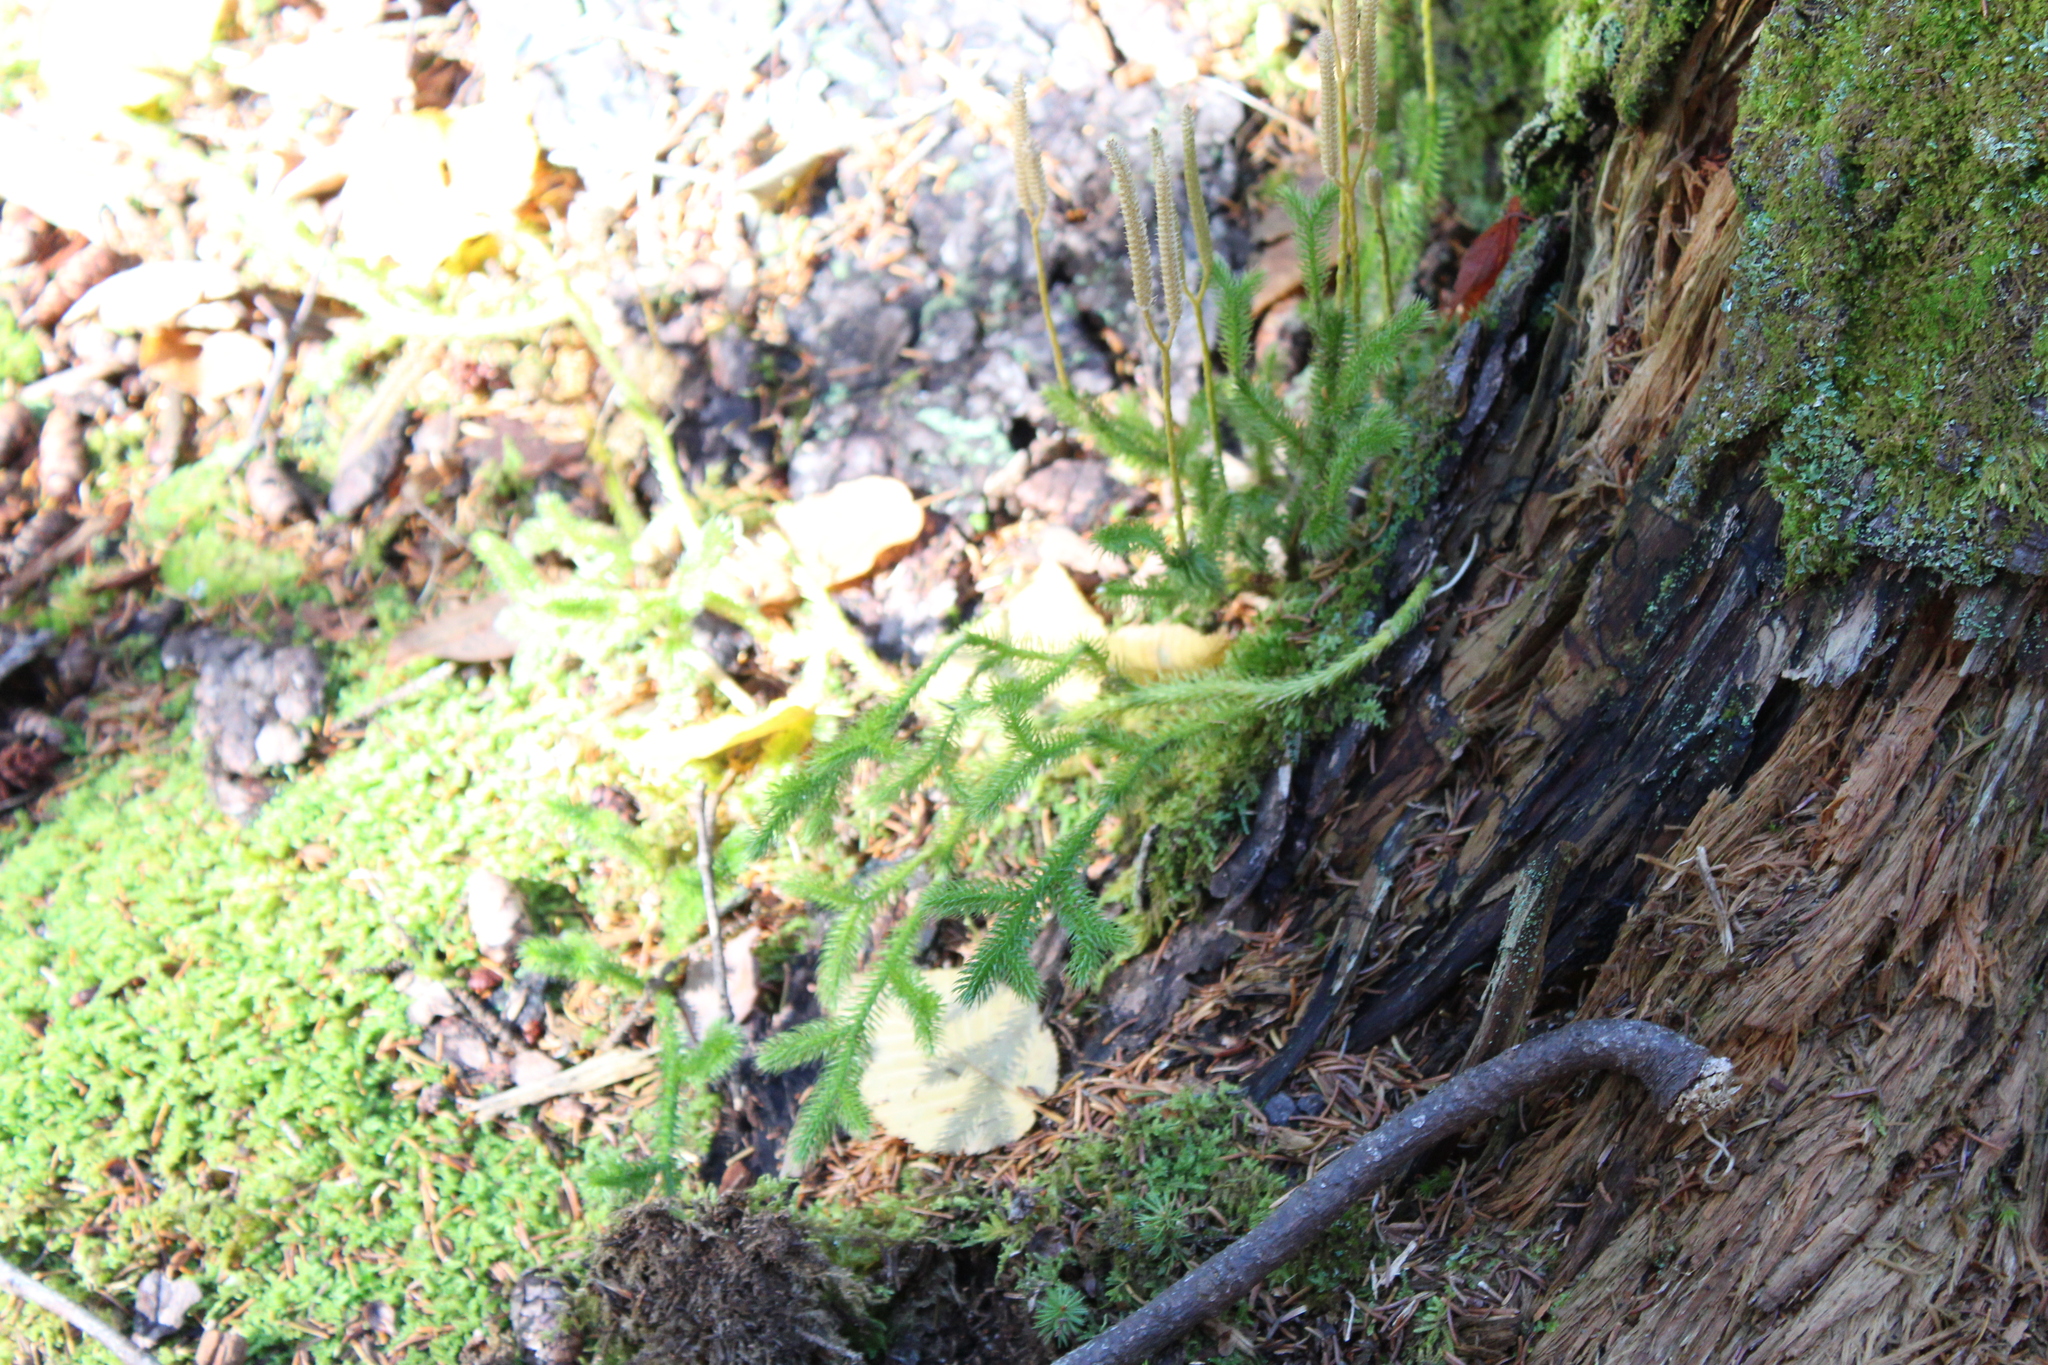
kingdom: Plantae
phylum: Tracheophyta
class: Lycopodiopsida
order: Lycopodiales
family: Lycopodiaceae
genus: Lycopodium
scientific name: Lycopodium clavatum
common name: Stag's-horn clubmoss
